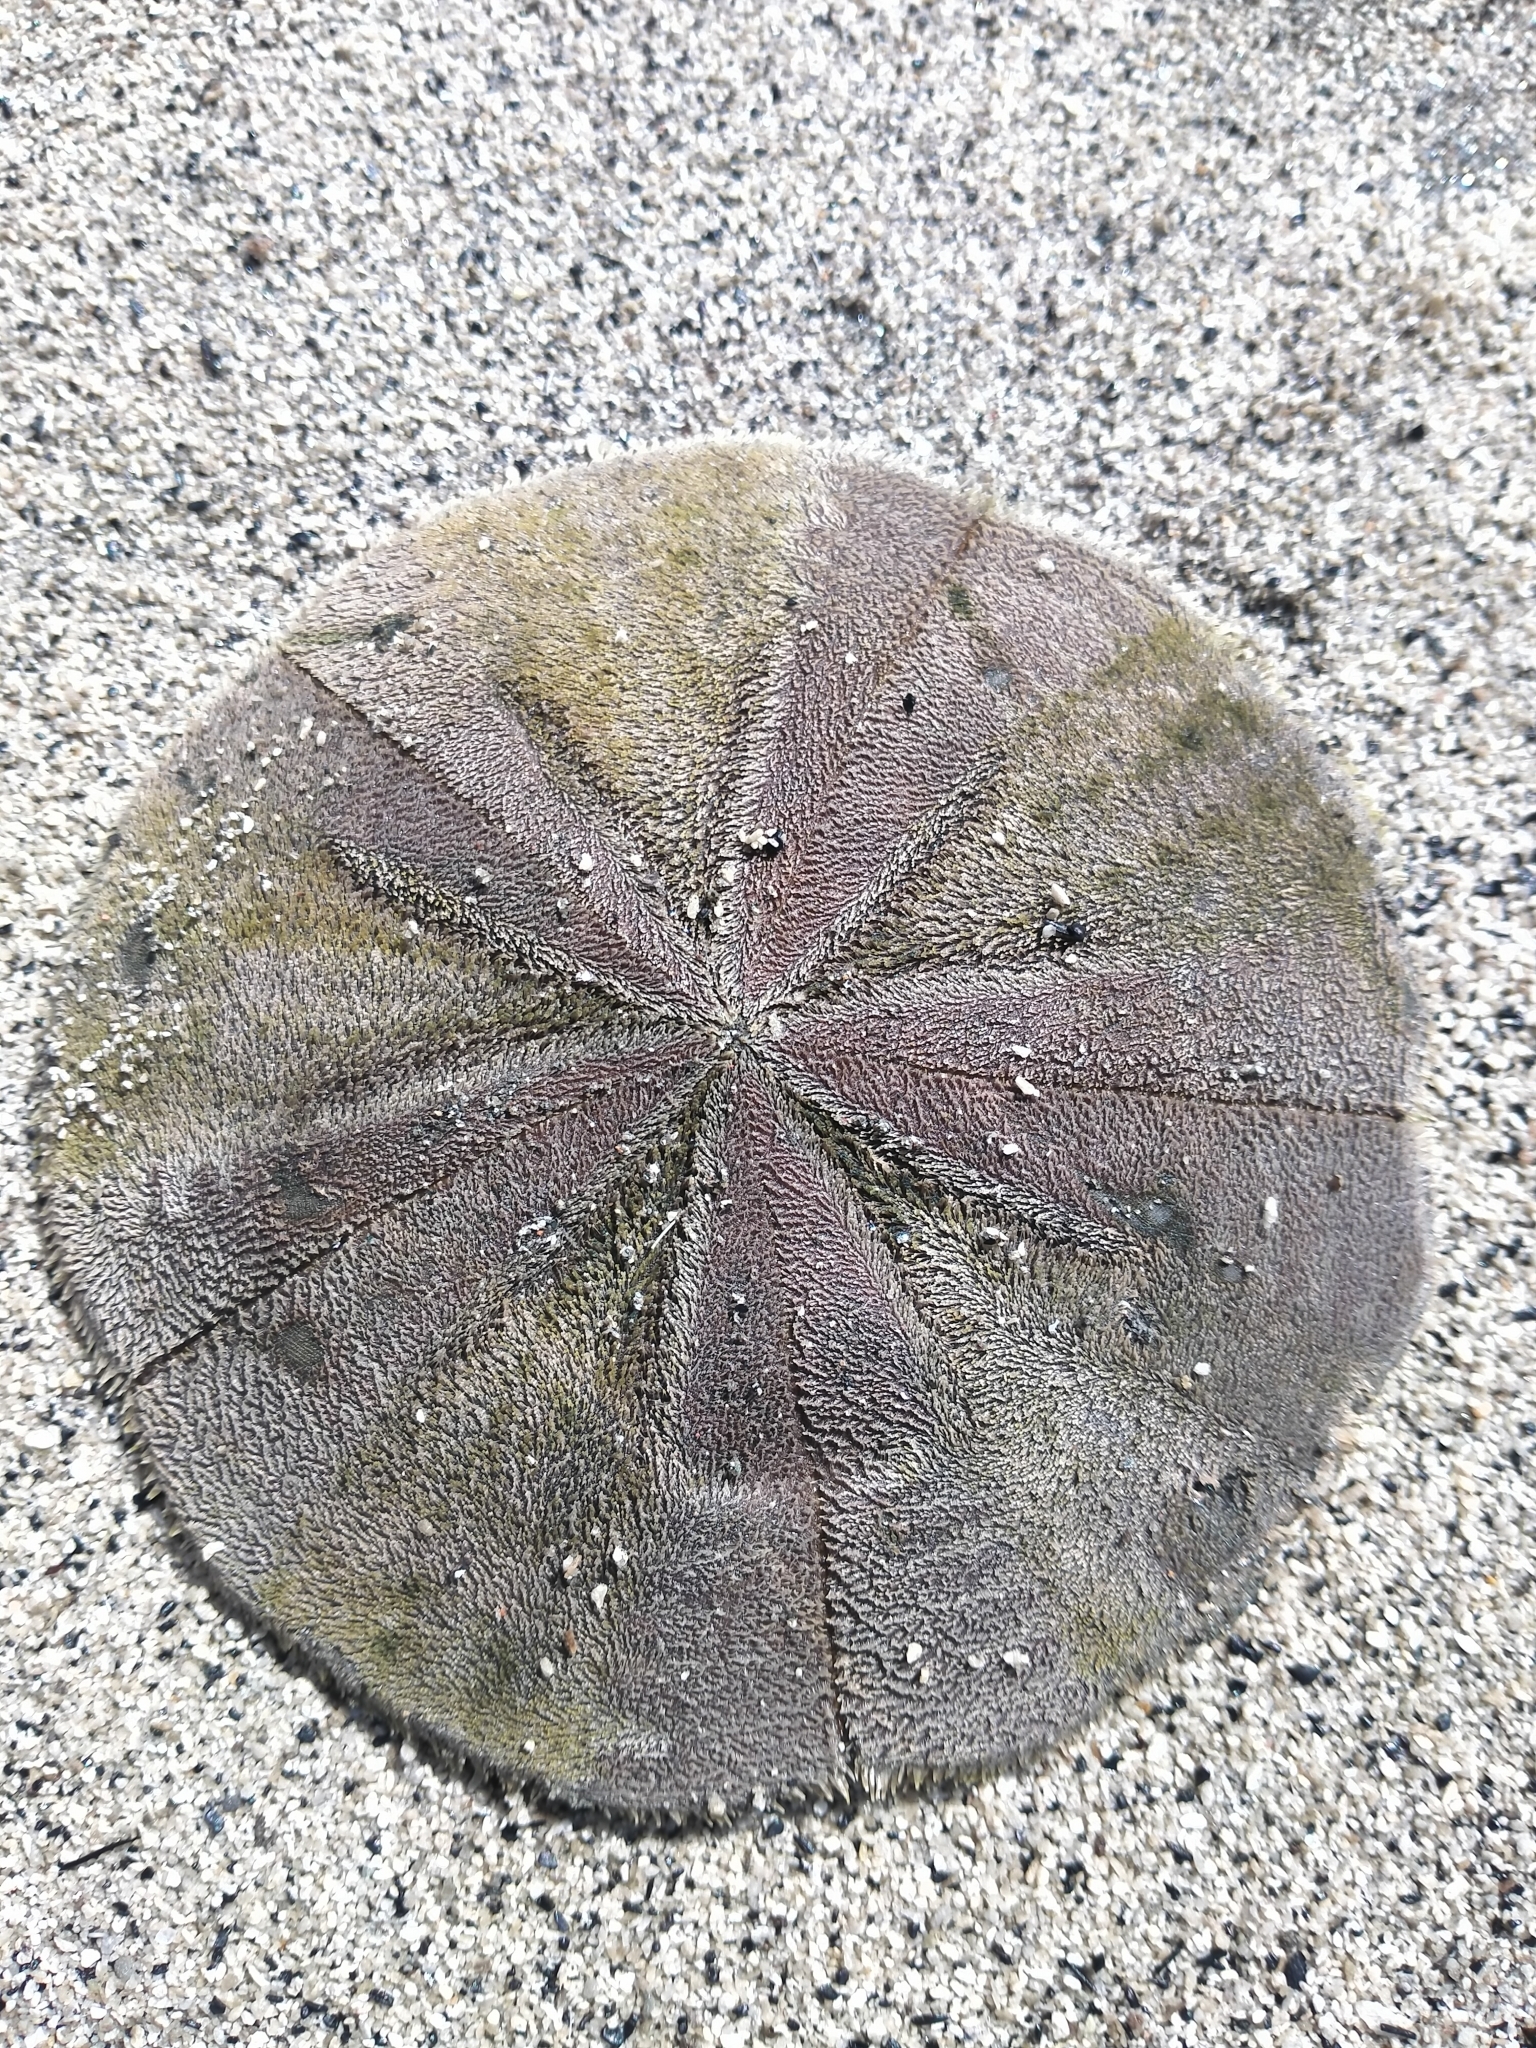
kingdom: Animalia
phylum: Echinodermata
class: Echinoidea
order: Clypeasteroida
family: Clypeasteridae
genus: Fellaster
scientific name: Fellaster zelandiae
